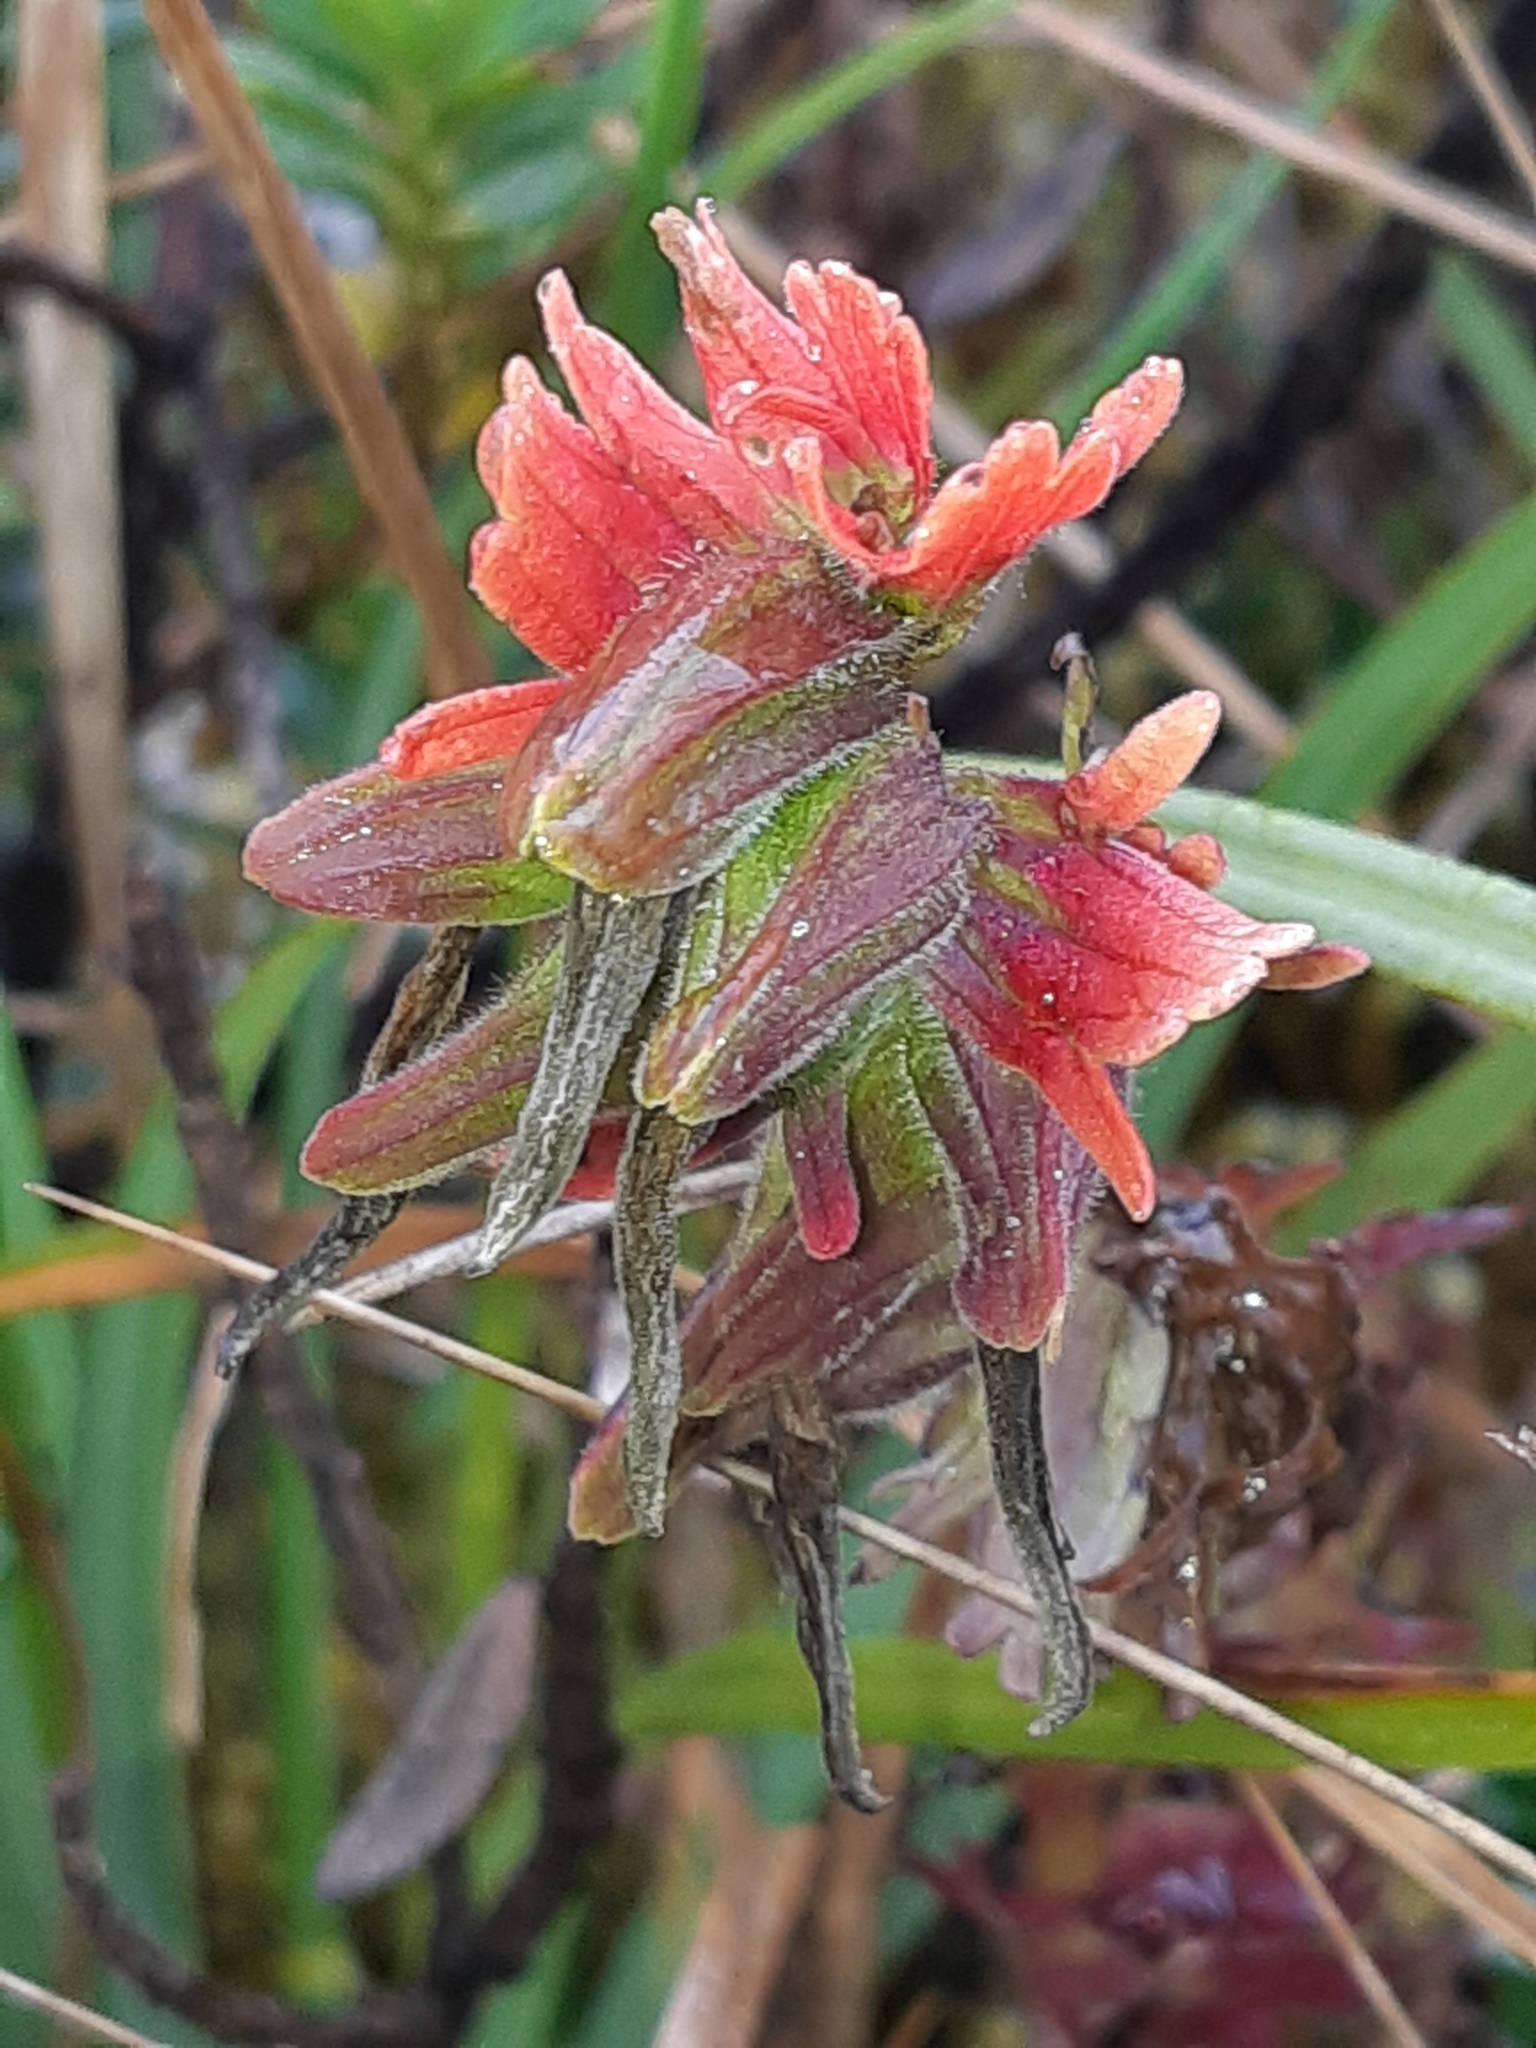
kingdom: Plantae
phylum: Tracheophyta
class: Magnoliopsida
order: Lamiales
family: Orobanchaceae
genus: Castilleja
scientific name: Castilleja fissifolia
